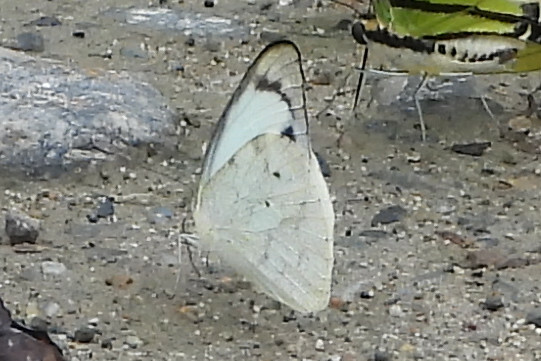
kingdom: Animalia
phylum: Arthropoda
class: Insecta
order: Lepidoptera
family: Pieridae
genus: Appias
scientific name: Appias indra
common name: Plain puffin
